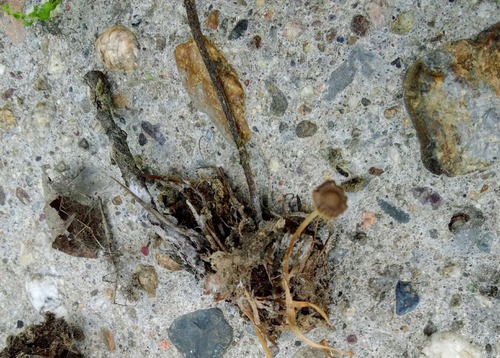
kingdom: Fungi
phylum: Basidiomycota
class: Agaricomycetes
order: Agaricales
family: Physalacriaceae
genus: Strobilurus
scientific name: Strobilurus stephanocystis
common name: Russian conecap
